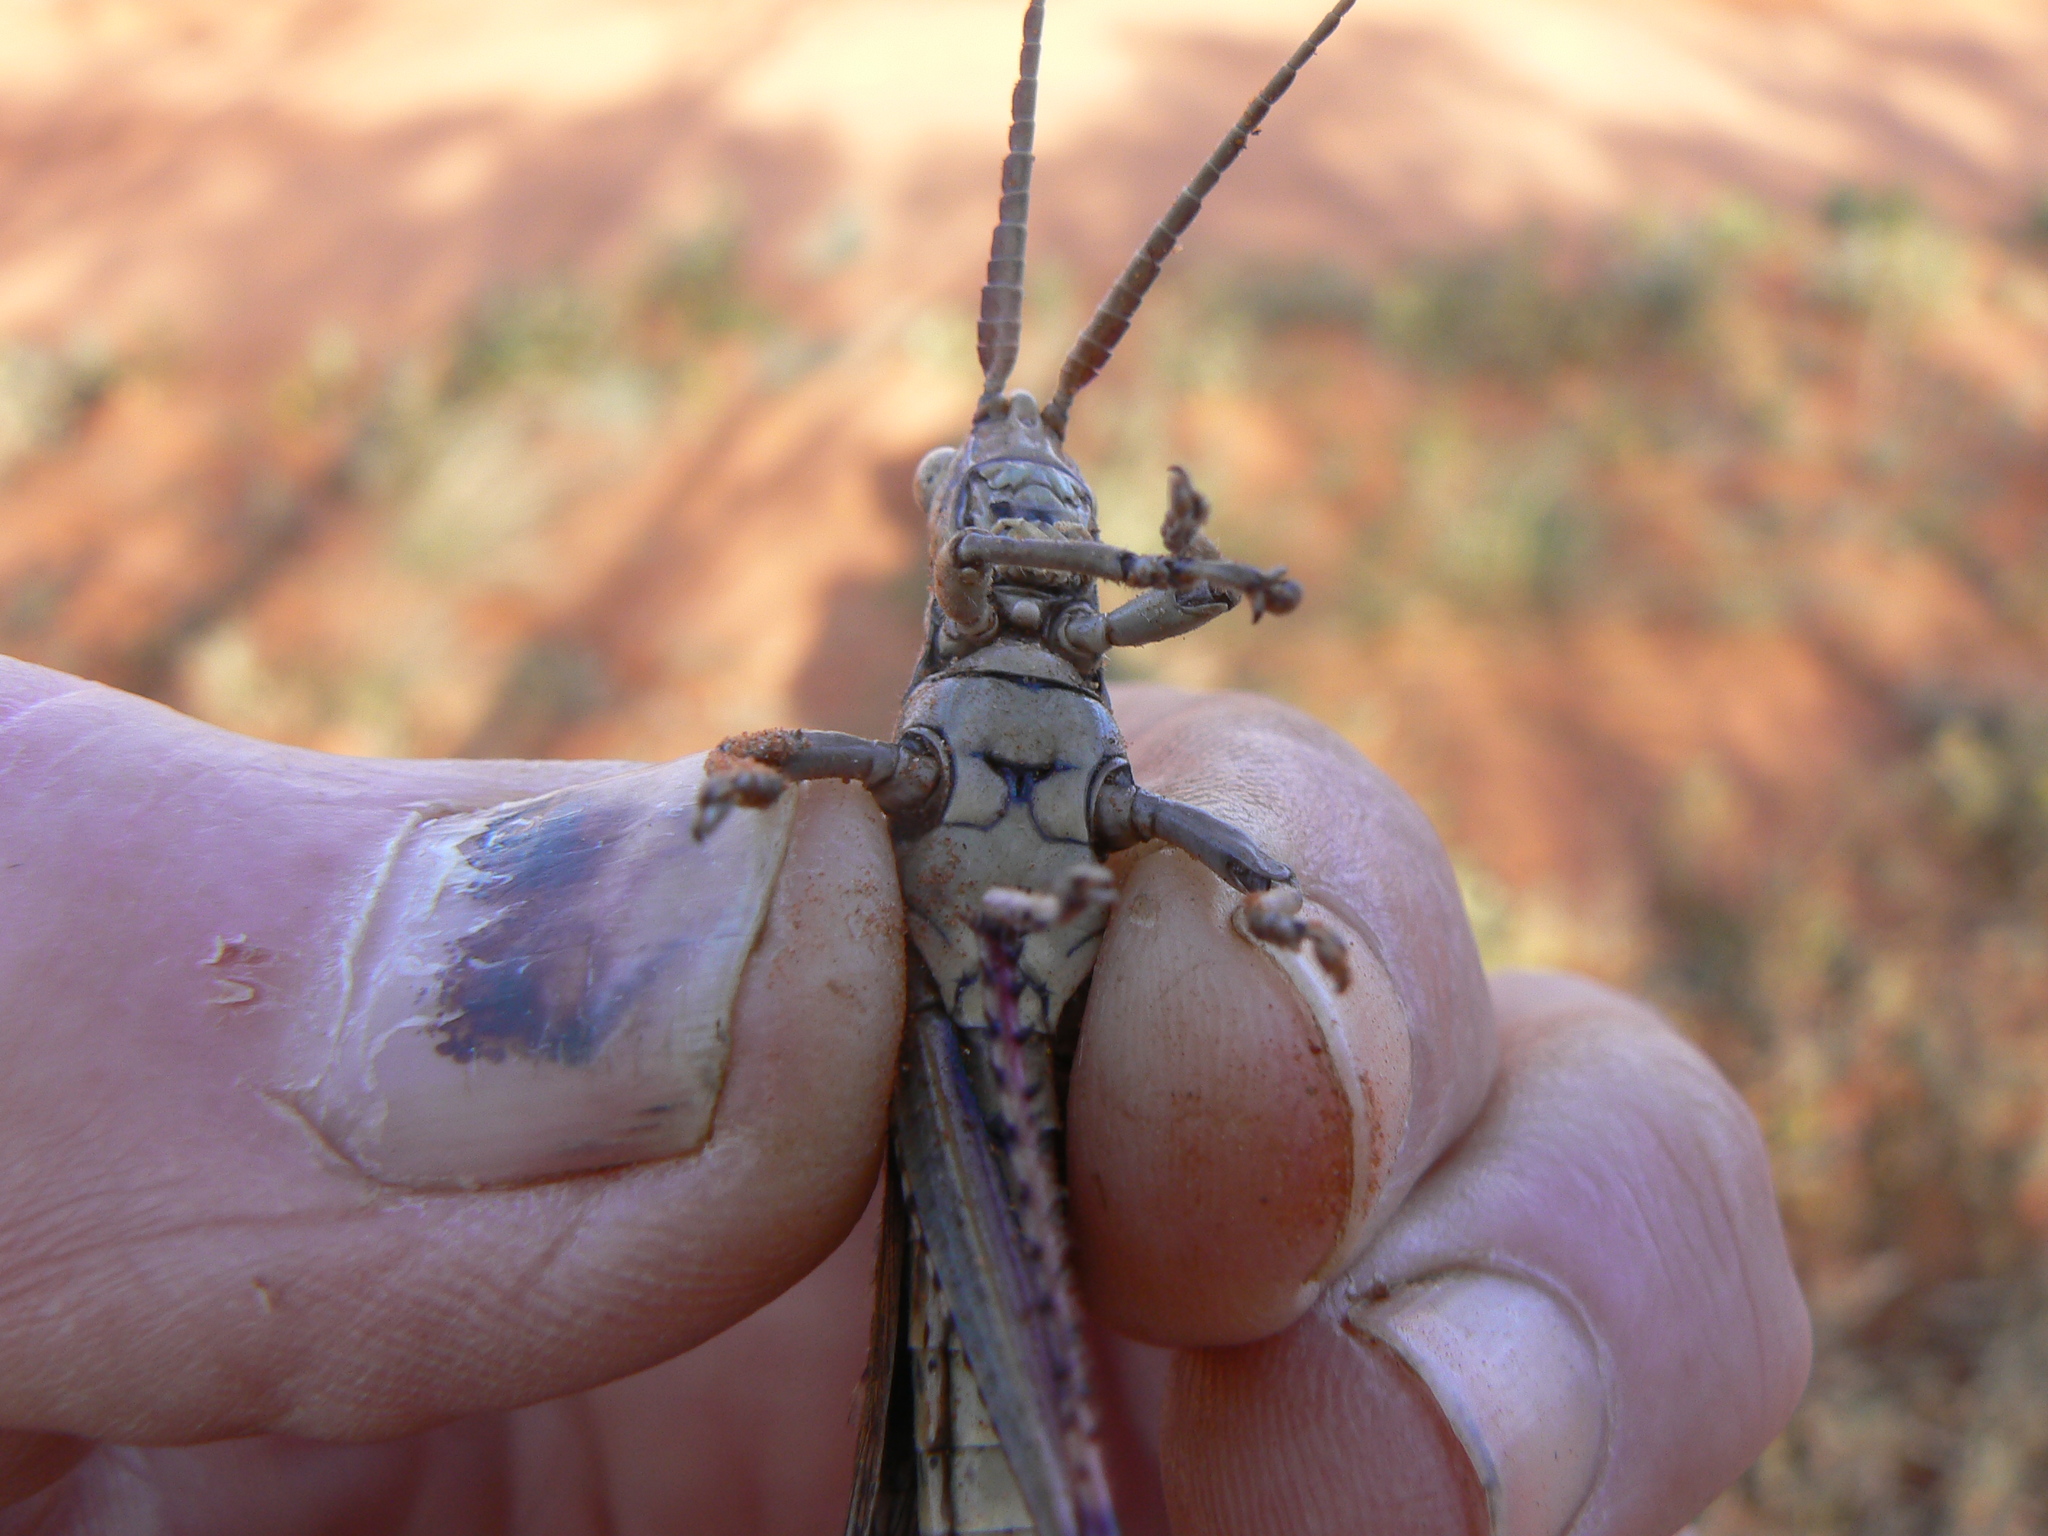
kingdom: Animalia
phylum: Arthropoda
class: Insecta
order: Orthoptera
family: Acrididae
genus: Macrolobalia
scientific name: Macrolobalia ocellata
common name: Gaudy acacia grasshopper
